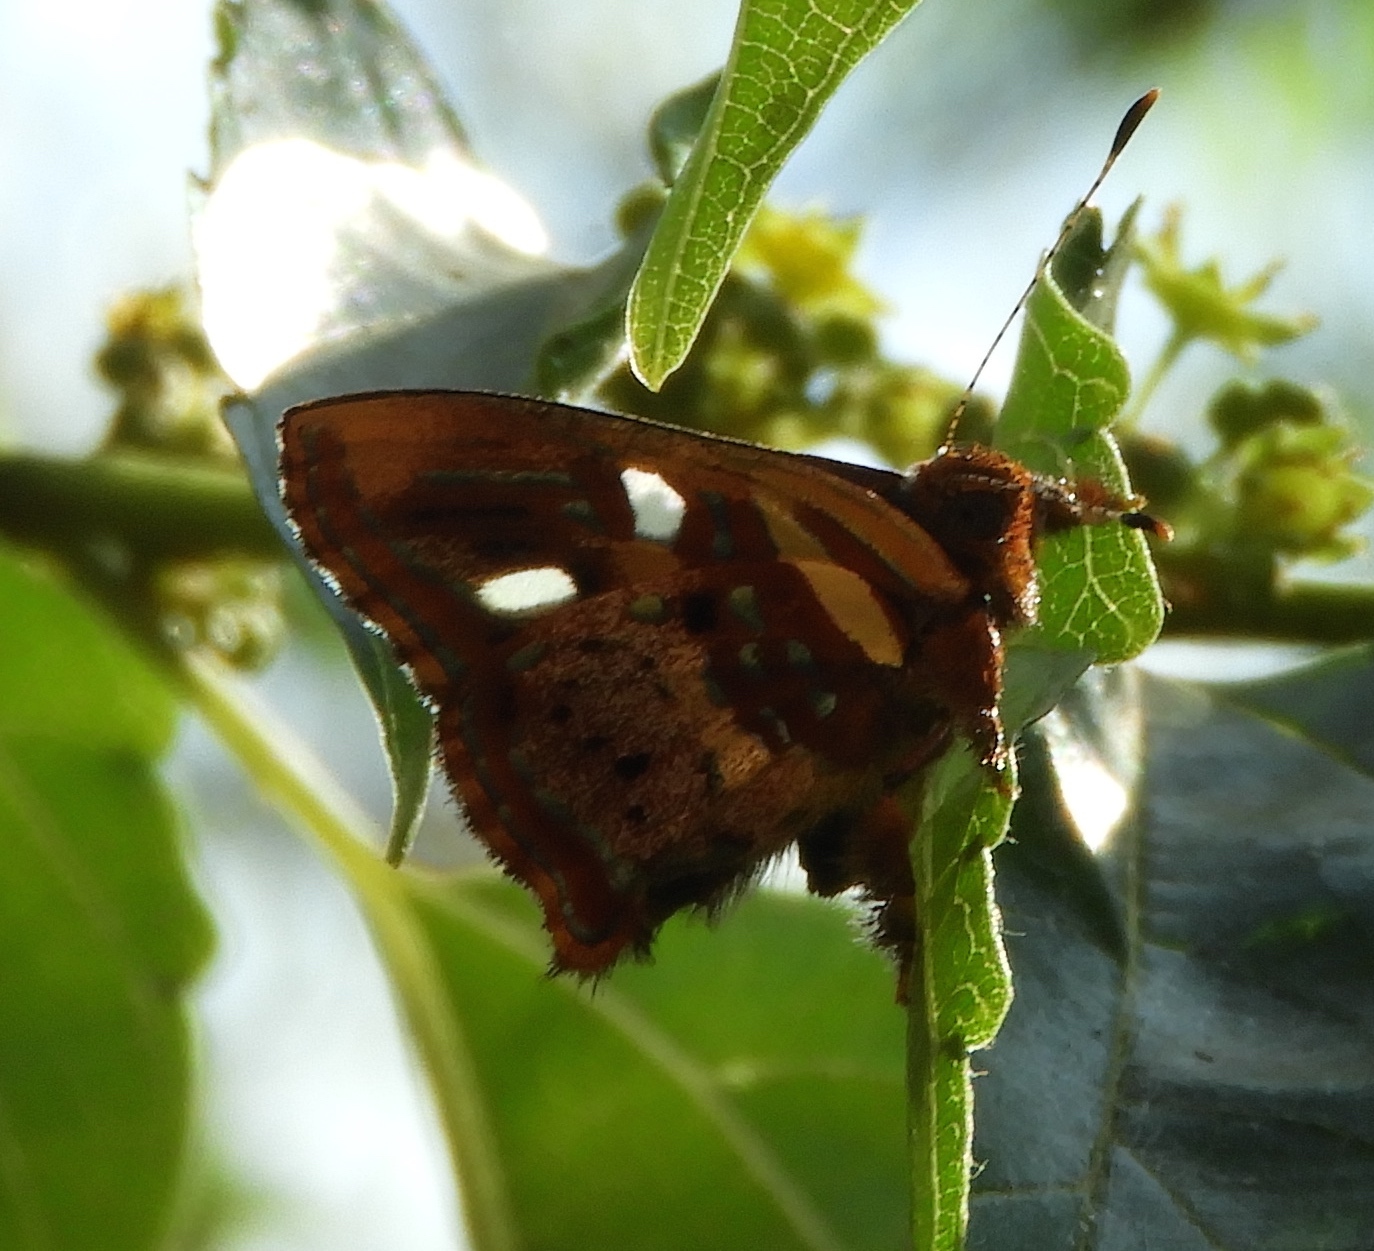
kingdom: Animalia
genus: Anteros
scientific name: Anteros carausius
